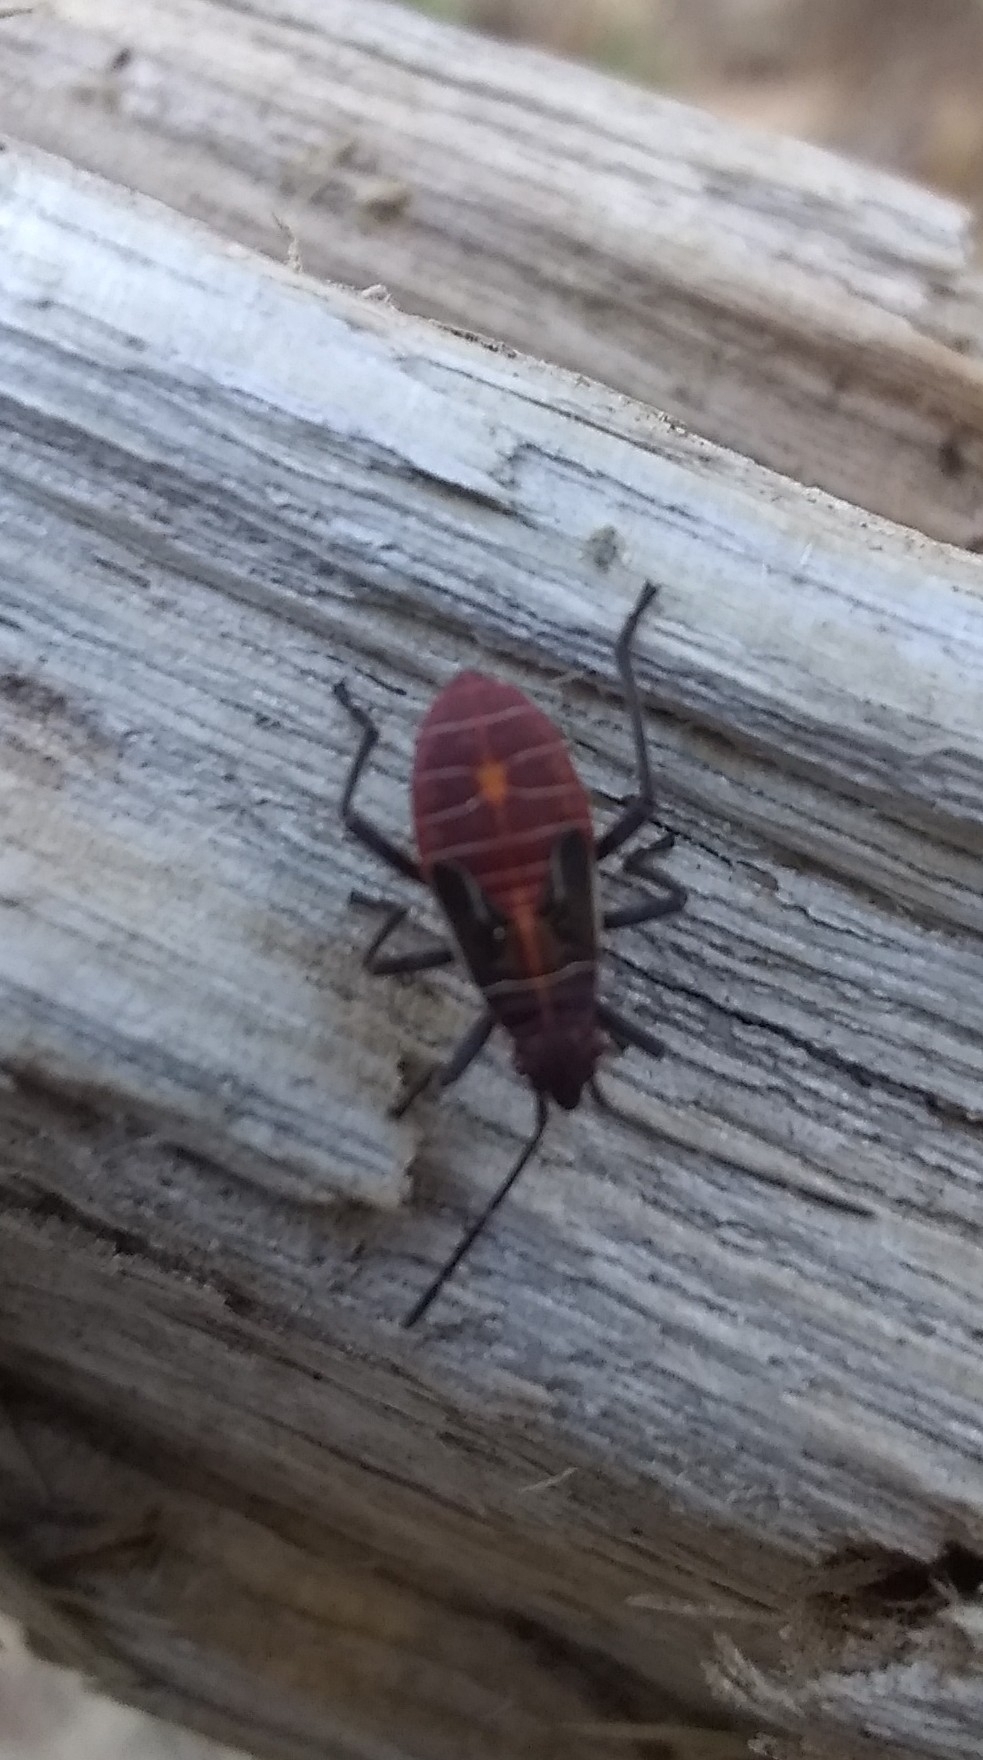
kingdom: Animalia
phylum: Arthropoda
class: Insecta
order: Hemiptera
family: Rhopalidae
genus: Boisea
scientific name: Boisea rubrolineata
